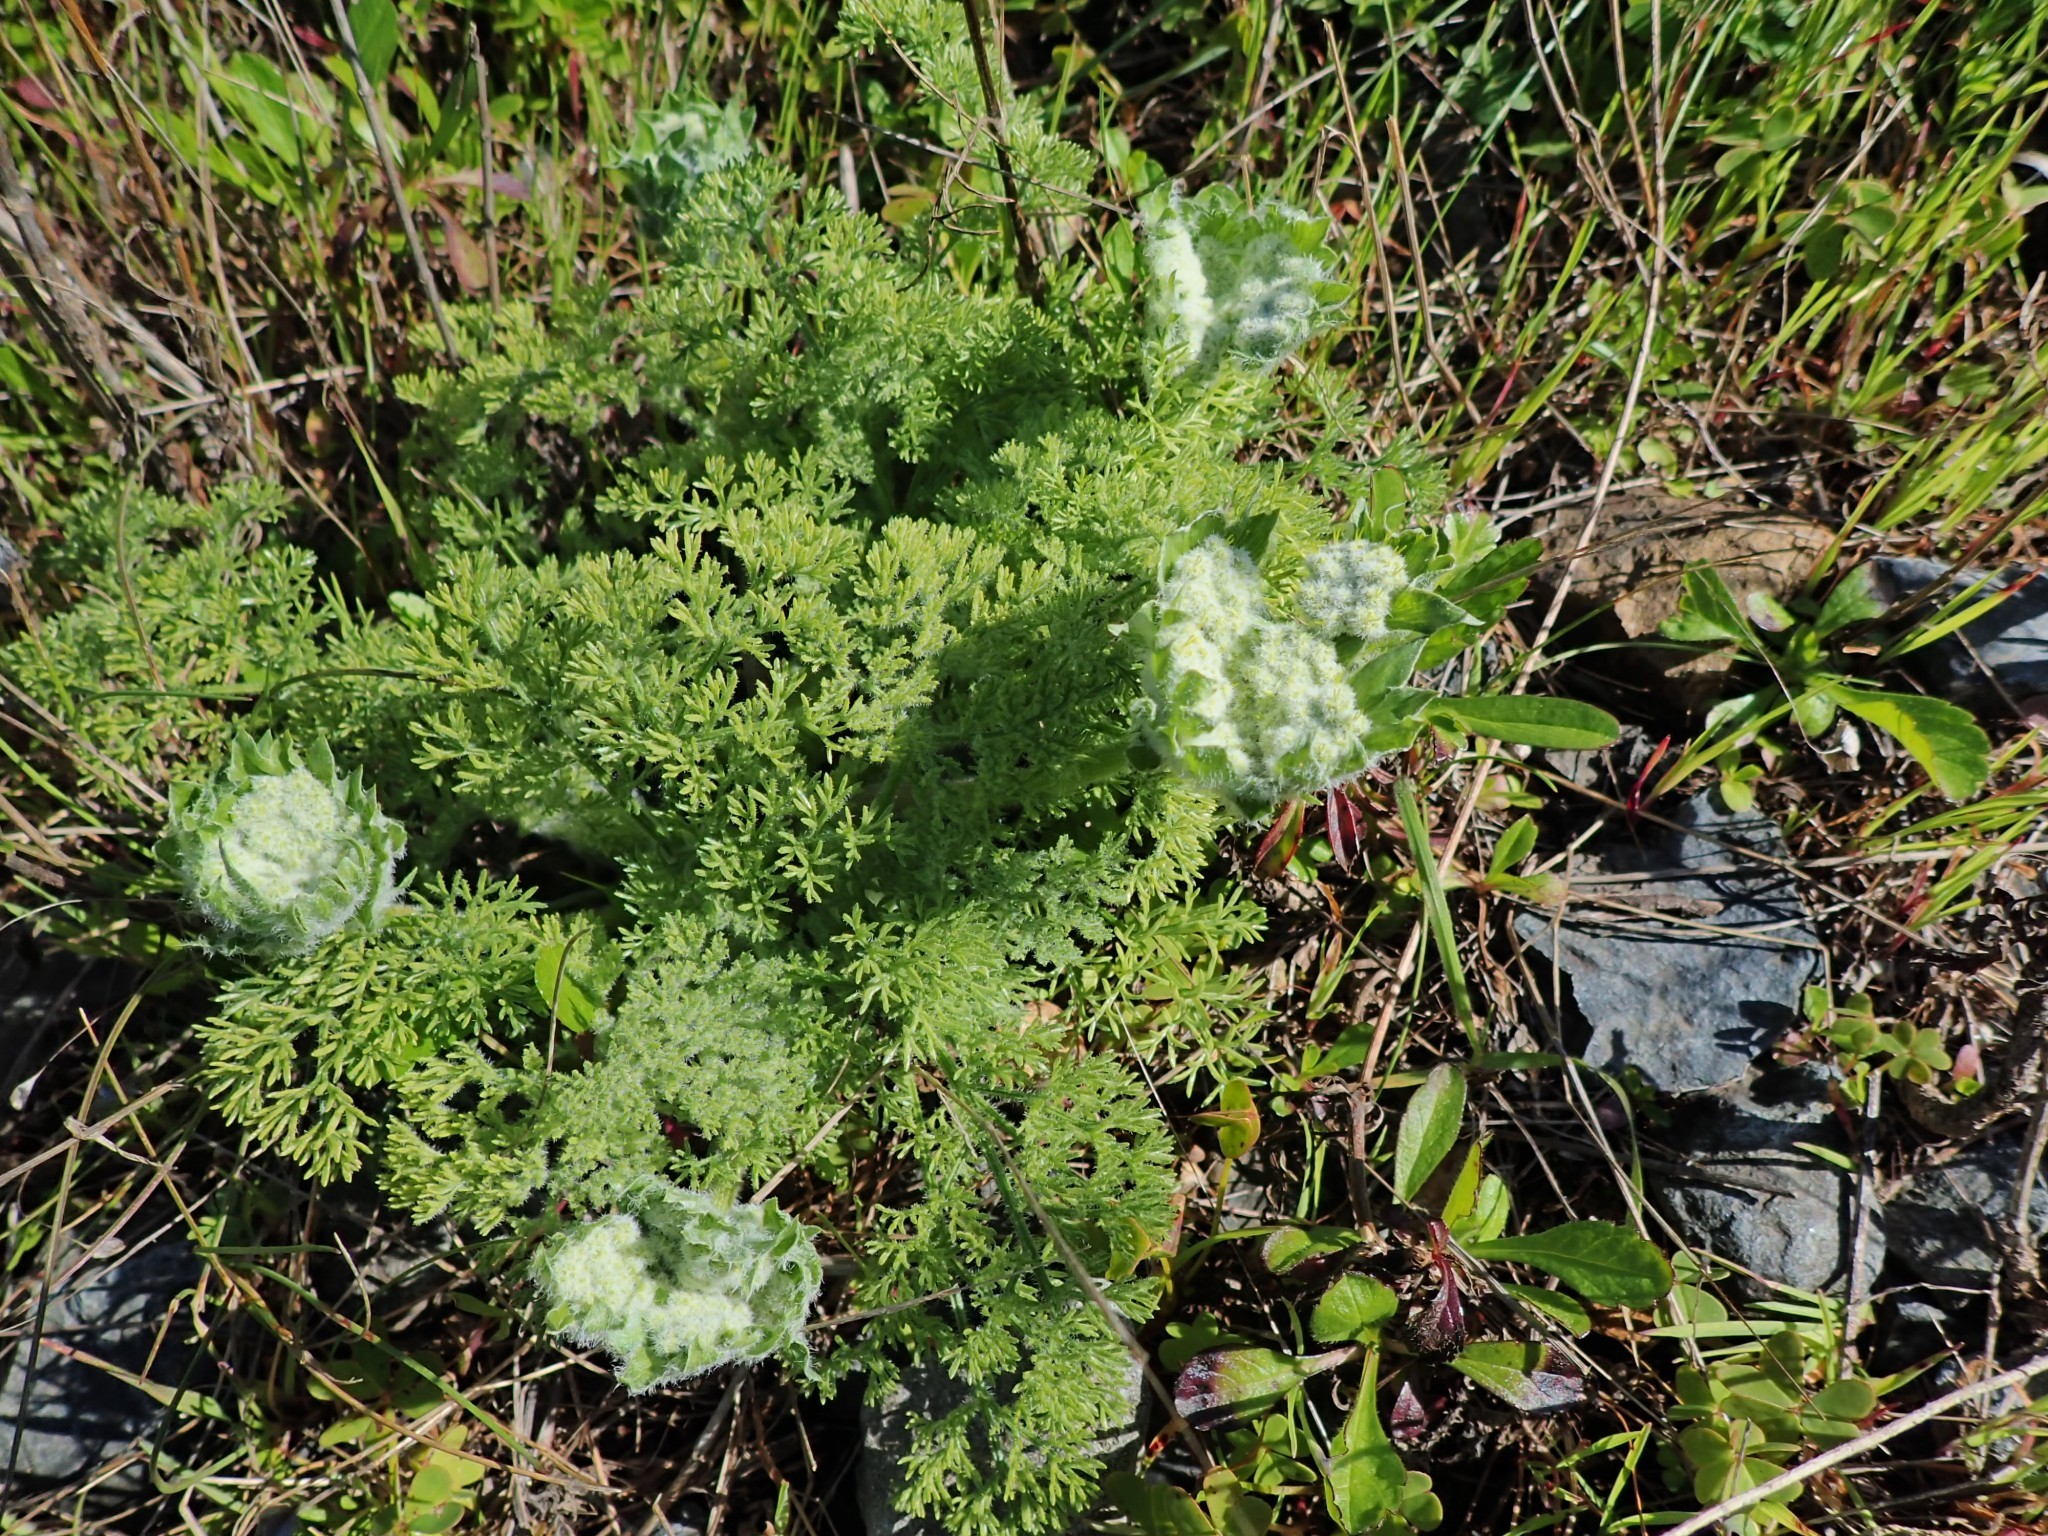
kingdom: Plantae
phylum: Tracheophyta
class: Magnoliopsida
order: Apiales
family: Apiaceae
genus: Lomatium
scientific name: Lomatium dasycarpum
